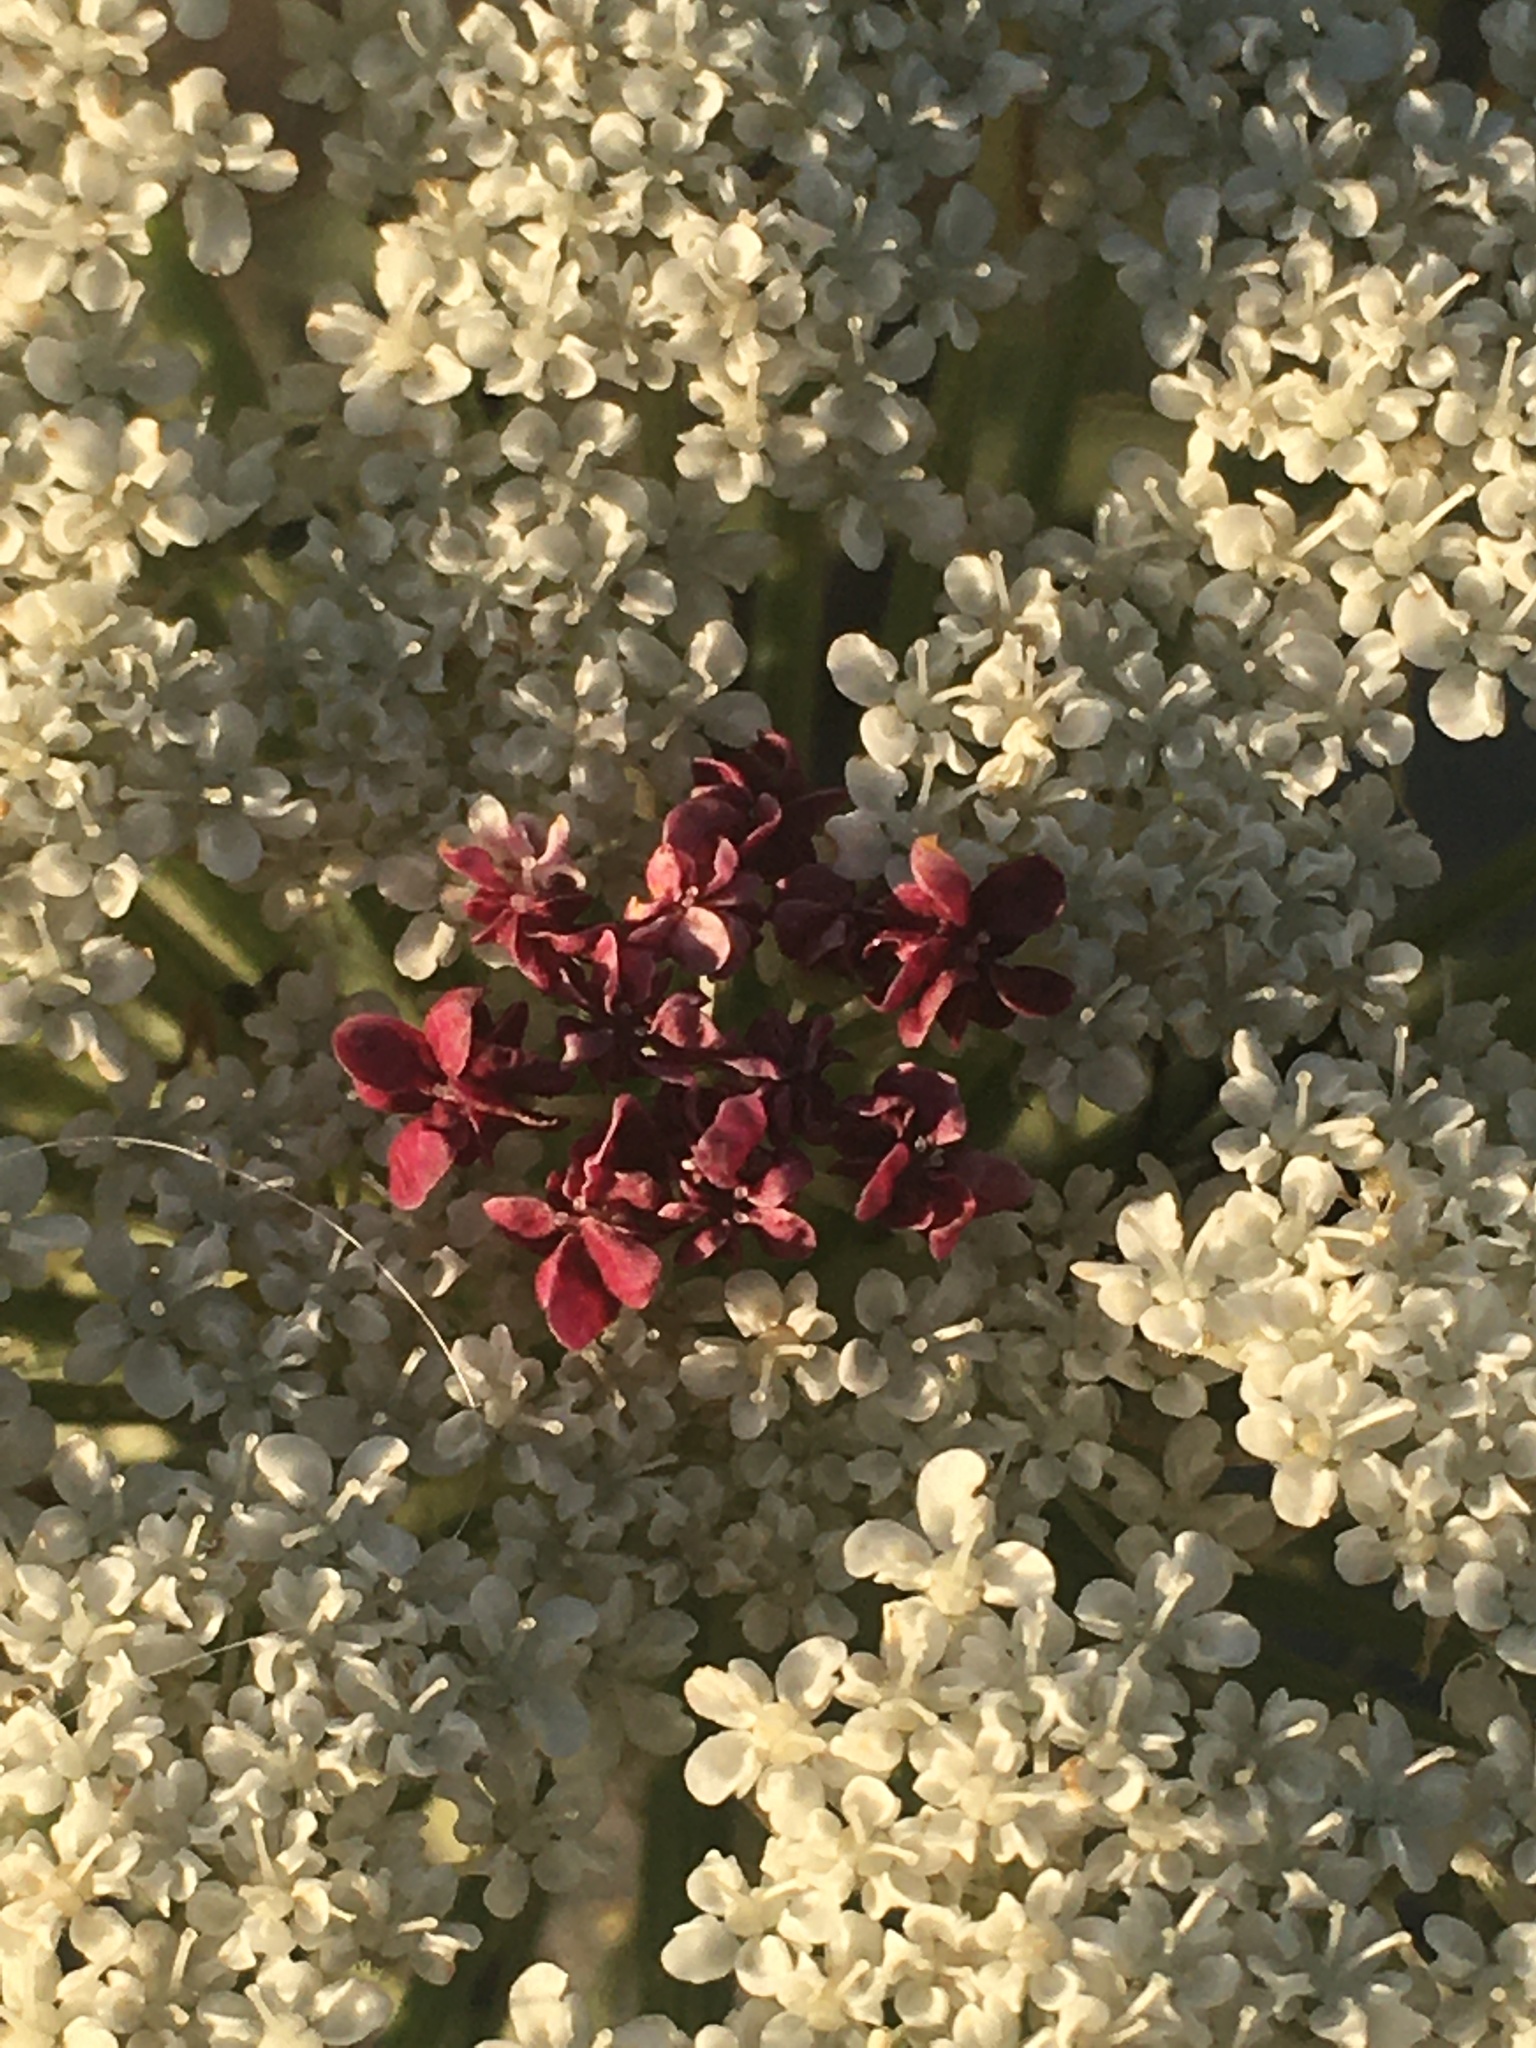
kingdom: Plantae
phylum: Tracheophyta
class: Magnoliopsida
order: Apiales
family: Apiaceae
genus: Daucus
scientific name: Daucus carota
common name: Wild carrot
